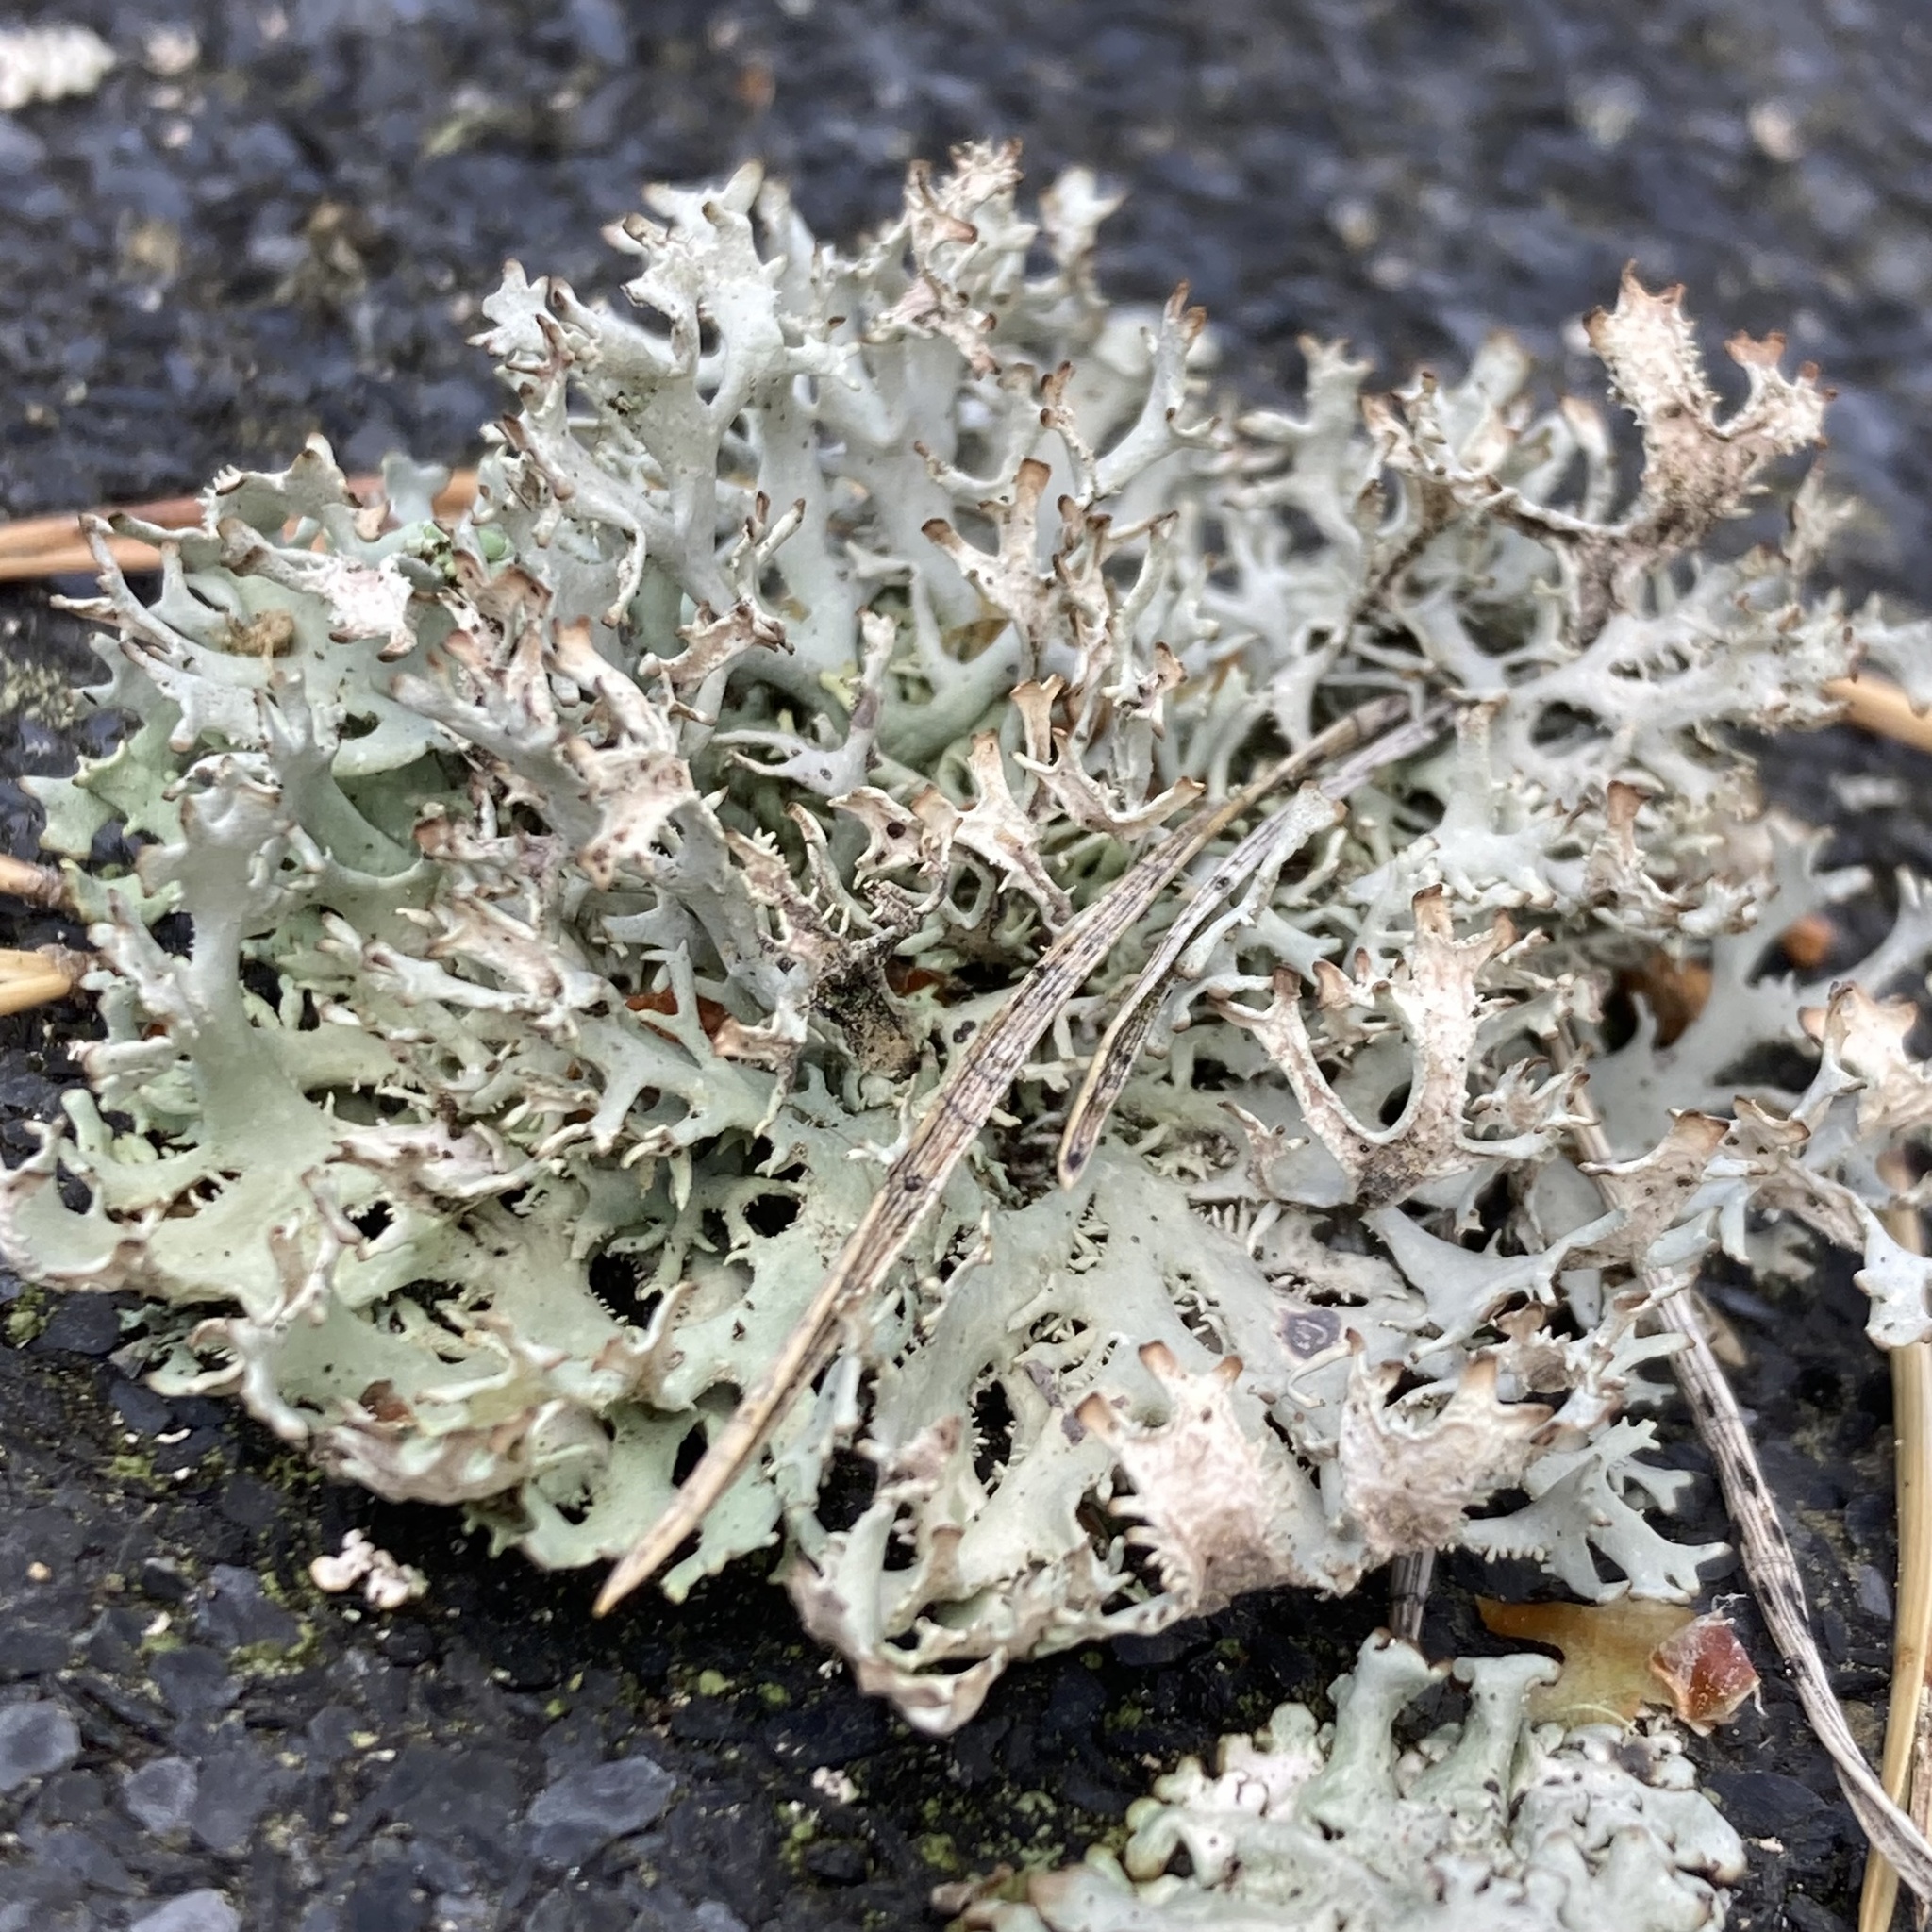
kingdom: Fungi
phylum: Ascomycota
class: Lecanoromycetes
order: Lecanorales
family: Parmeliaceae
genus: Pseudevernia
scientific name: Pseudevernia furfuracea
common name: Tree moss
